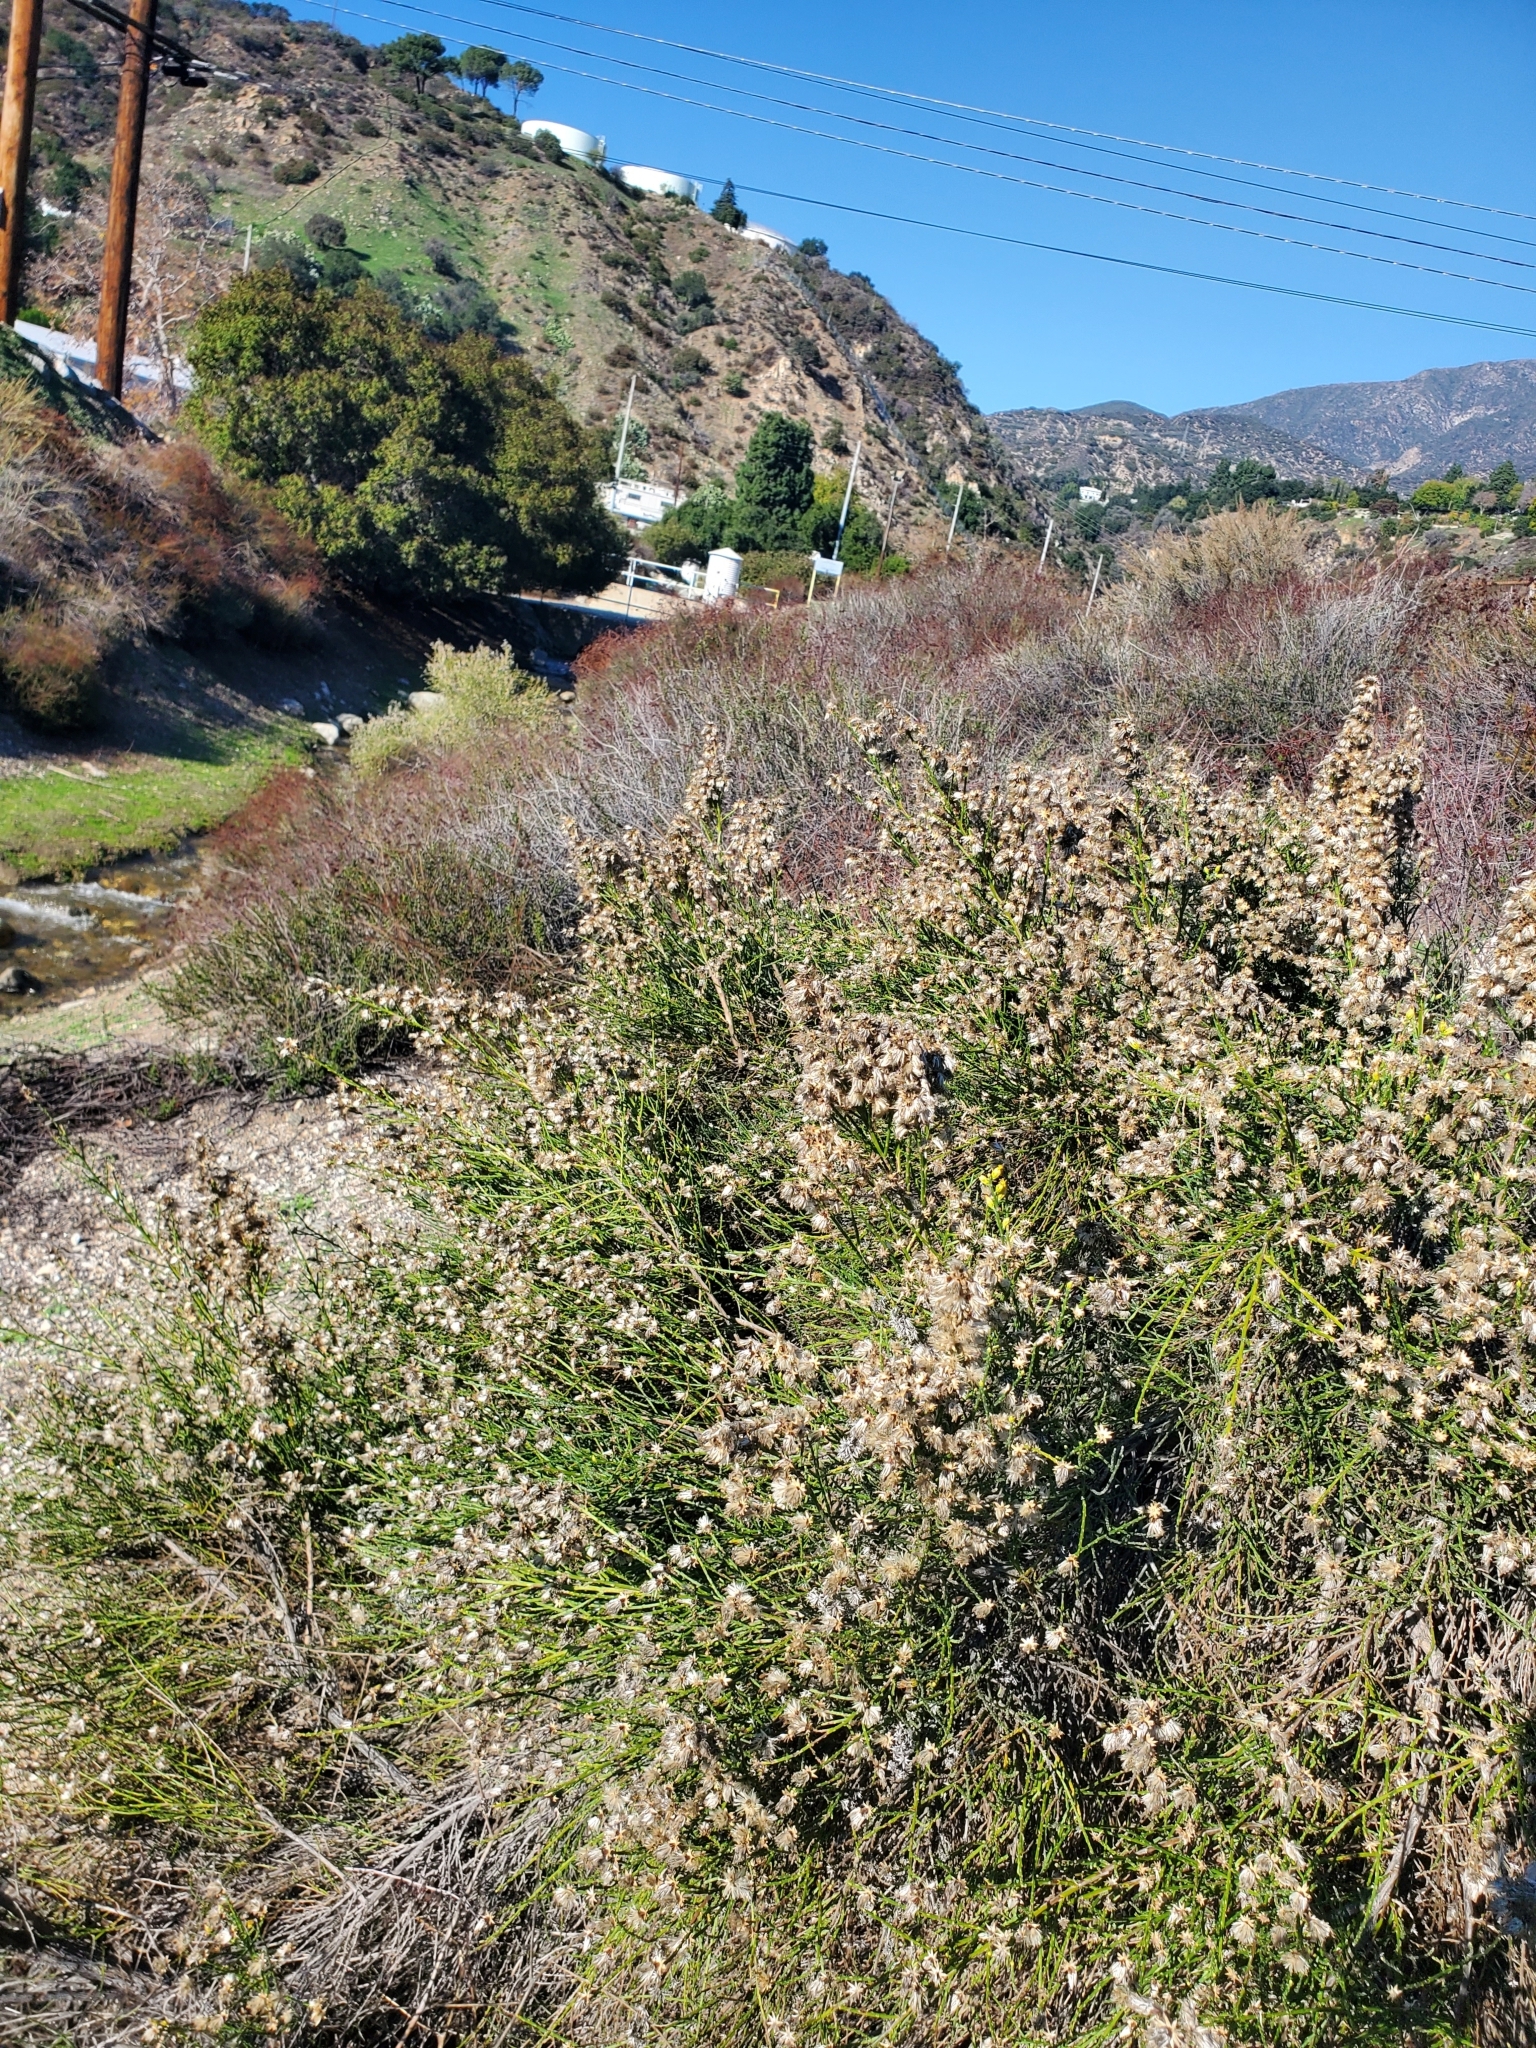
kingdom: Plantae
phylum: Tracheophyta
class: Magnoliopsida
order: Asterales
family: Asteraceae
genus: Lepidospartum
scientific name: Lepidospartum squamatum
